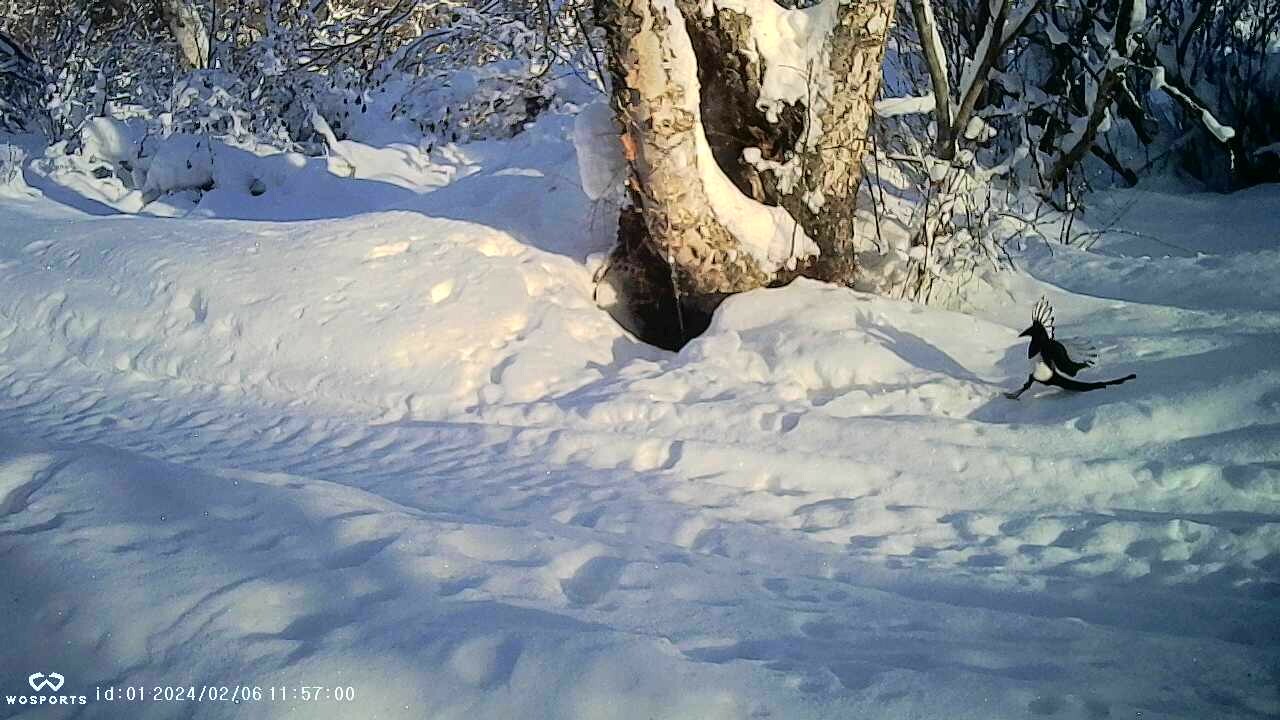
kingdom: Animalia
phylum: Chordata
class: Aves
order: Passeriformes
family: Corvidae
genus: Pica
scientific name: Pica hudsonia
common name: Black-billed magpie
